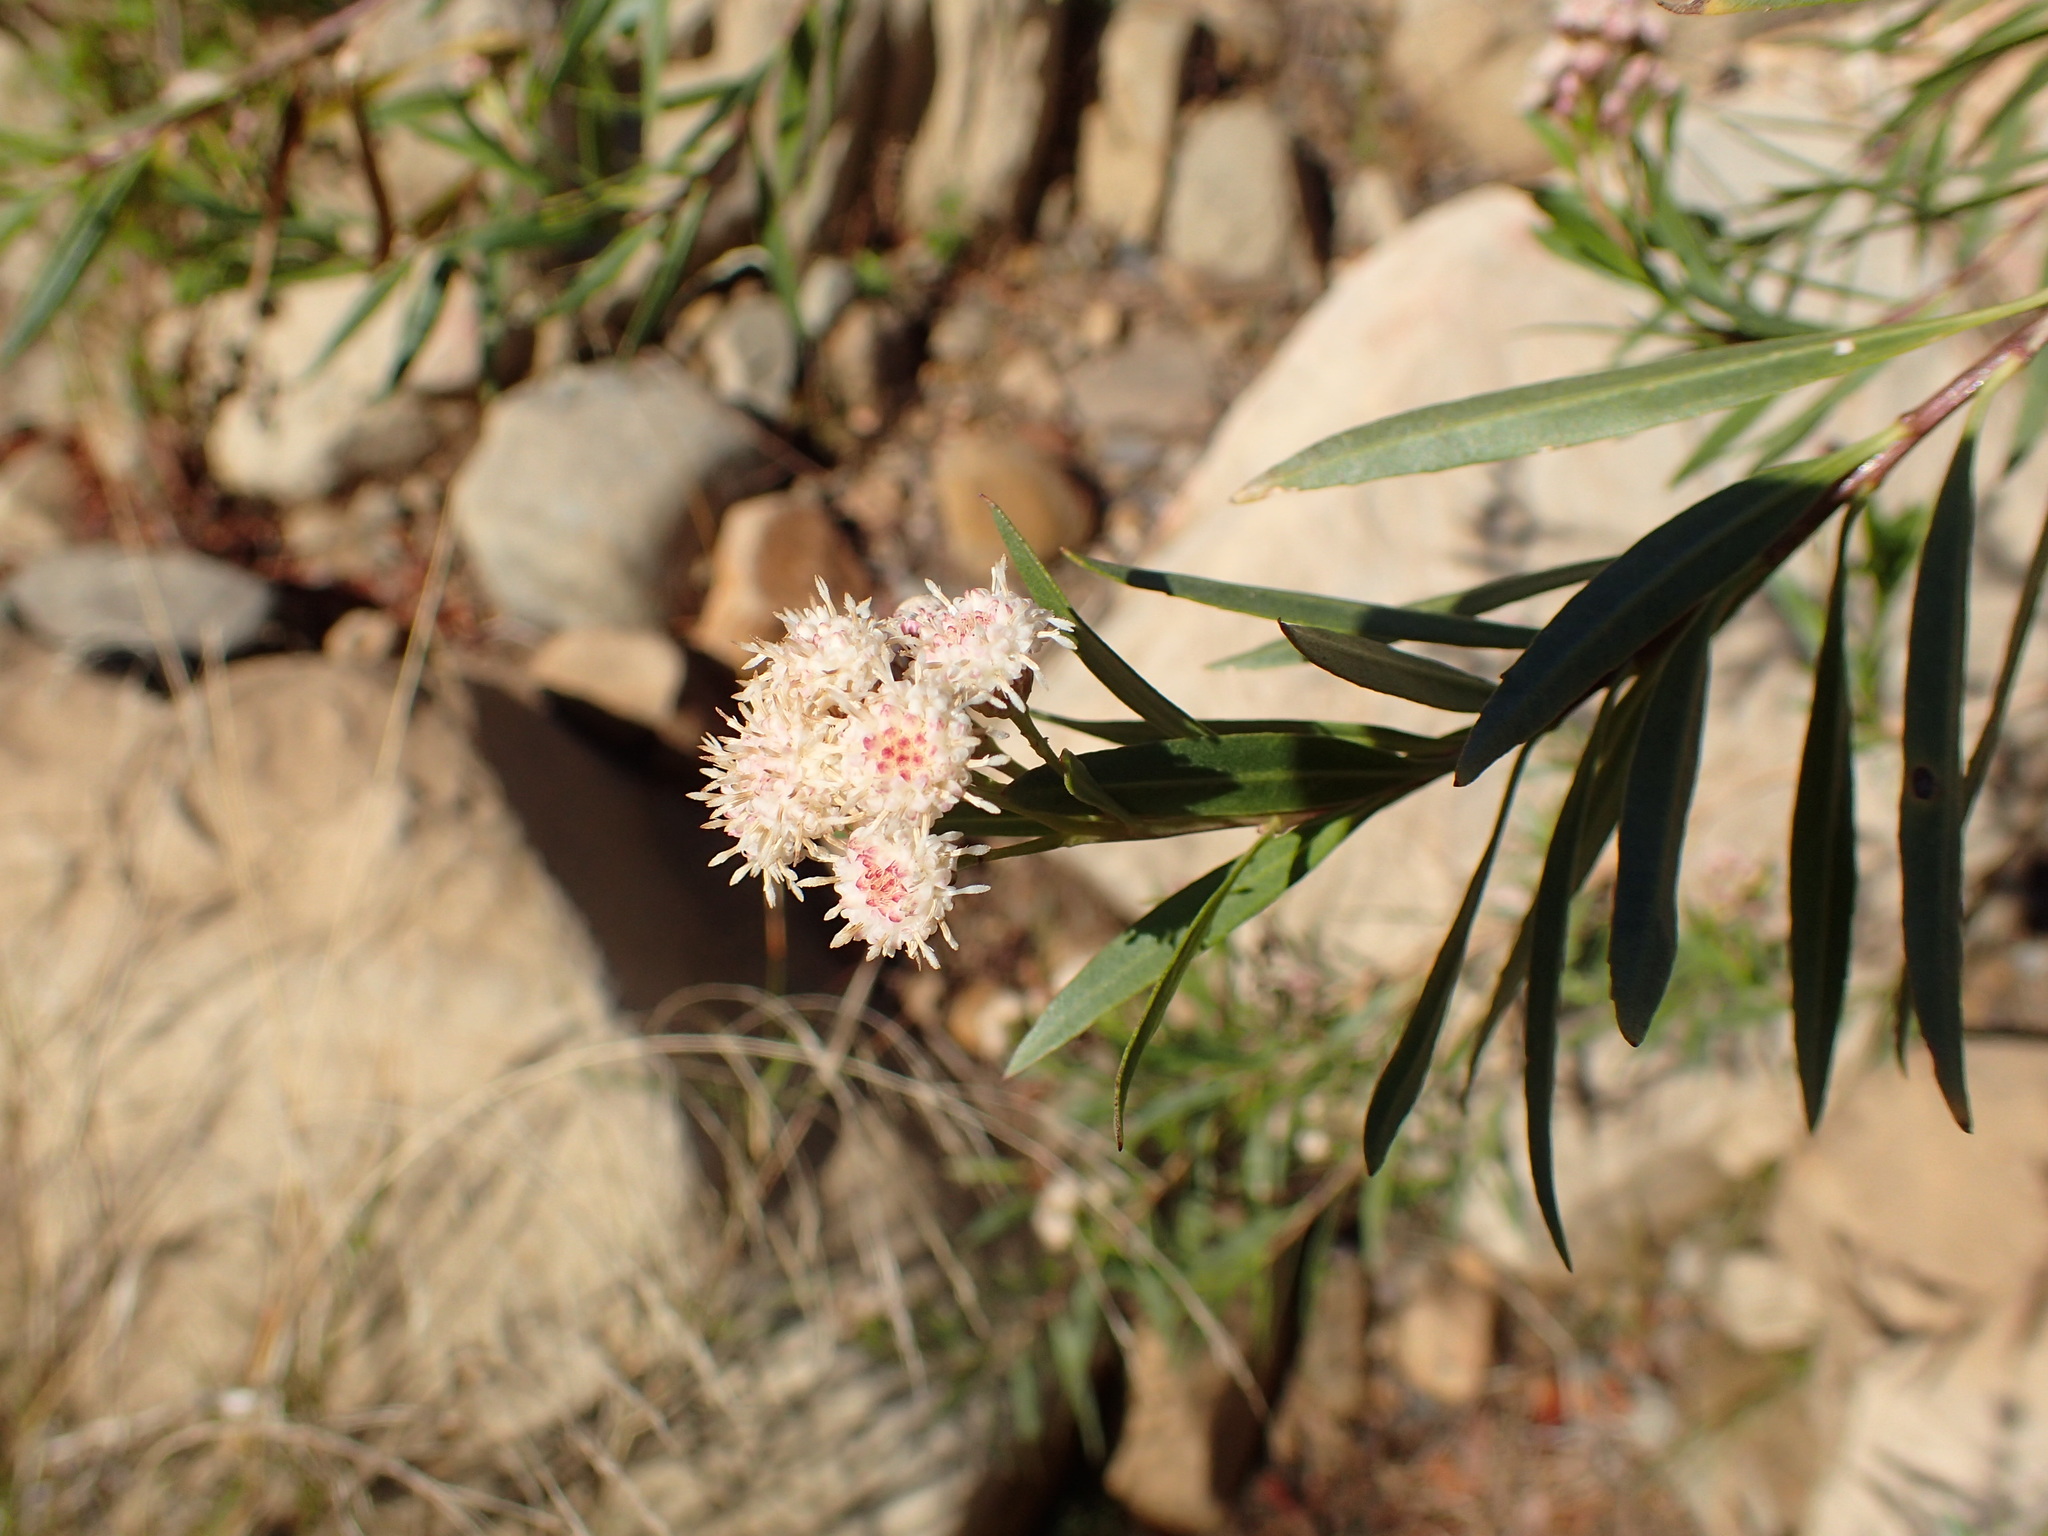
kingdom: Plantae
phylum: Tracheophyta
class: Magnoliopsida
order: Asterales
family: Asteraceae
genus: Baccharis
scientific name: Baccharis salicifolia
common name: Sticky baccharis
